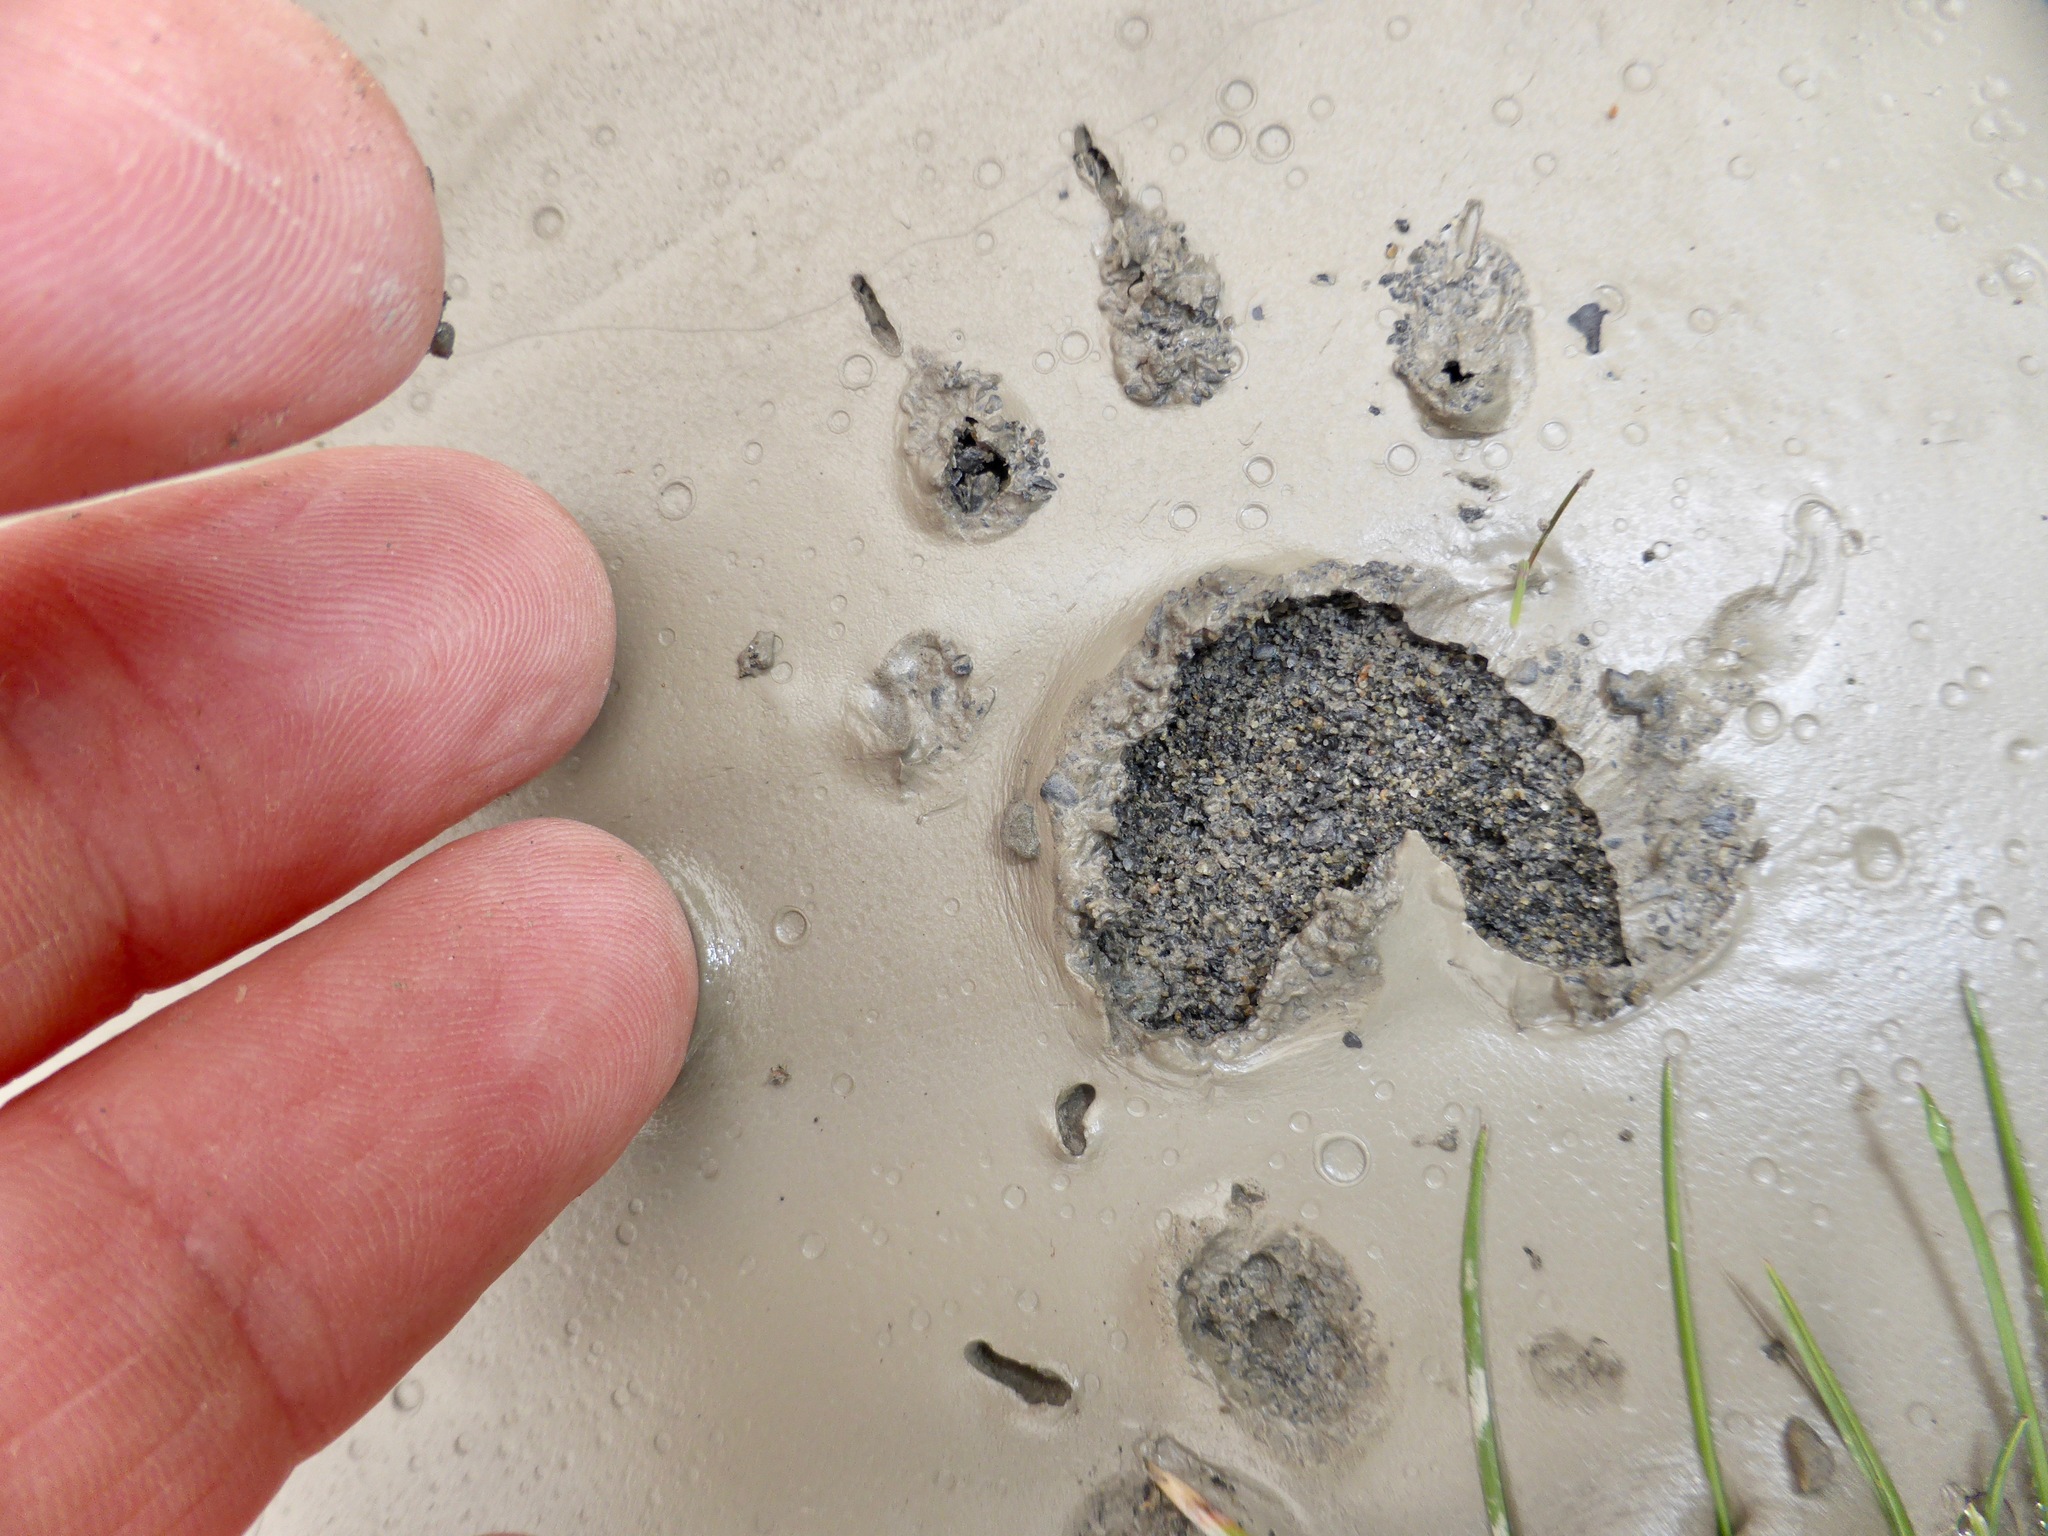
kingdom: Animalia
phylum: Chordata
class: Mammalia
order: Diprotodontia
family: Phalangeridae
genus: Trichosurus
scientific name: Trichosurus vulpecula
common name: Common brushtail
